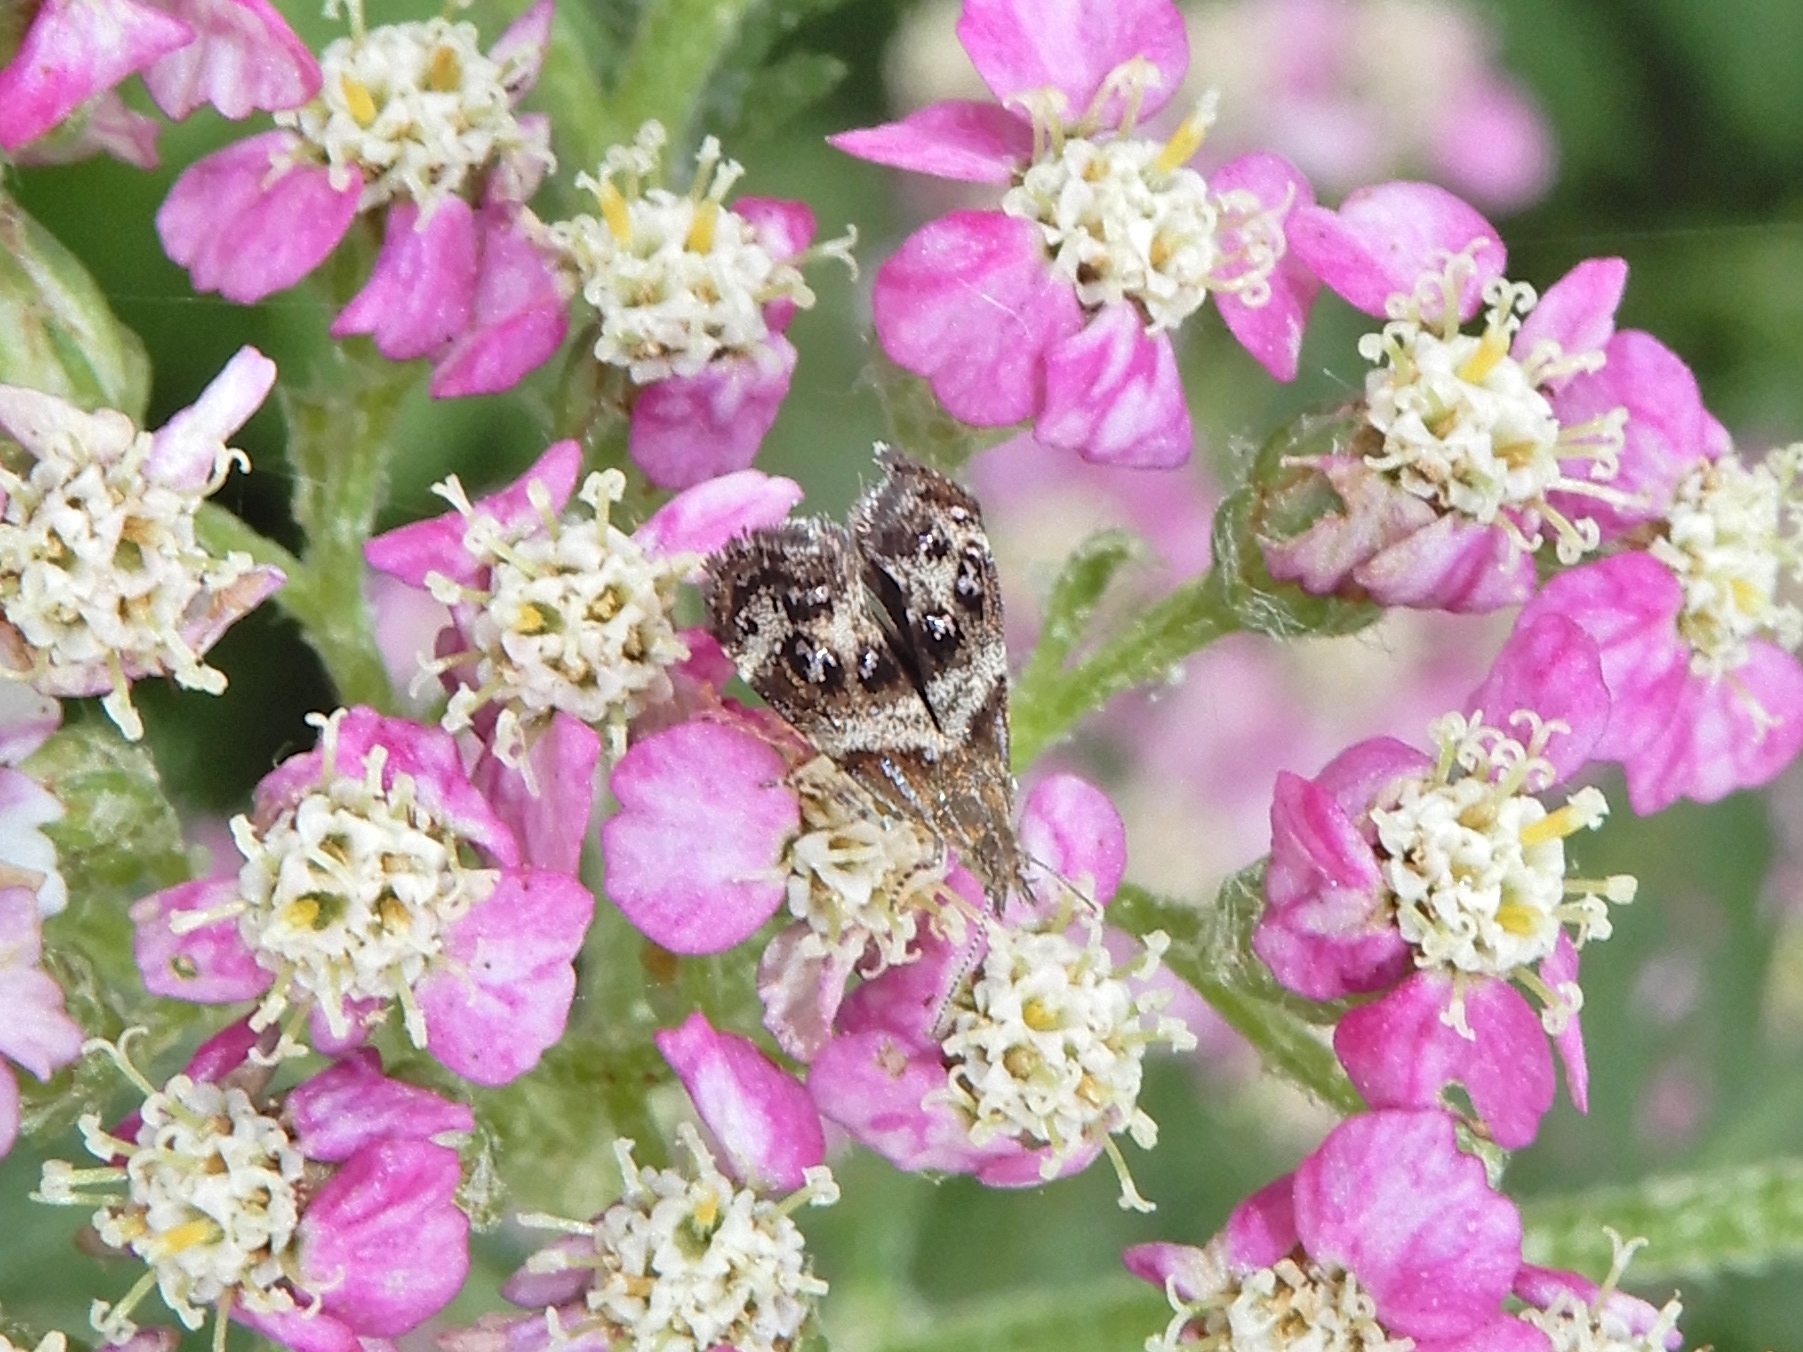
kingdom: Animalia
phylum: Arthropoda
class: Insecta
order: Lepidoptera
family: Choreutidae
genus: Tebenna
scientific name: Tebenna micalis
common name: Vagrant twitcher
